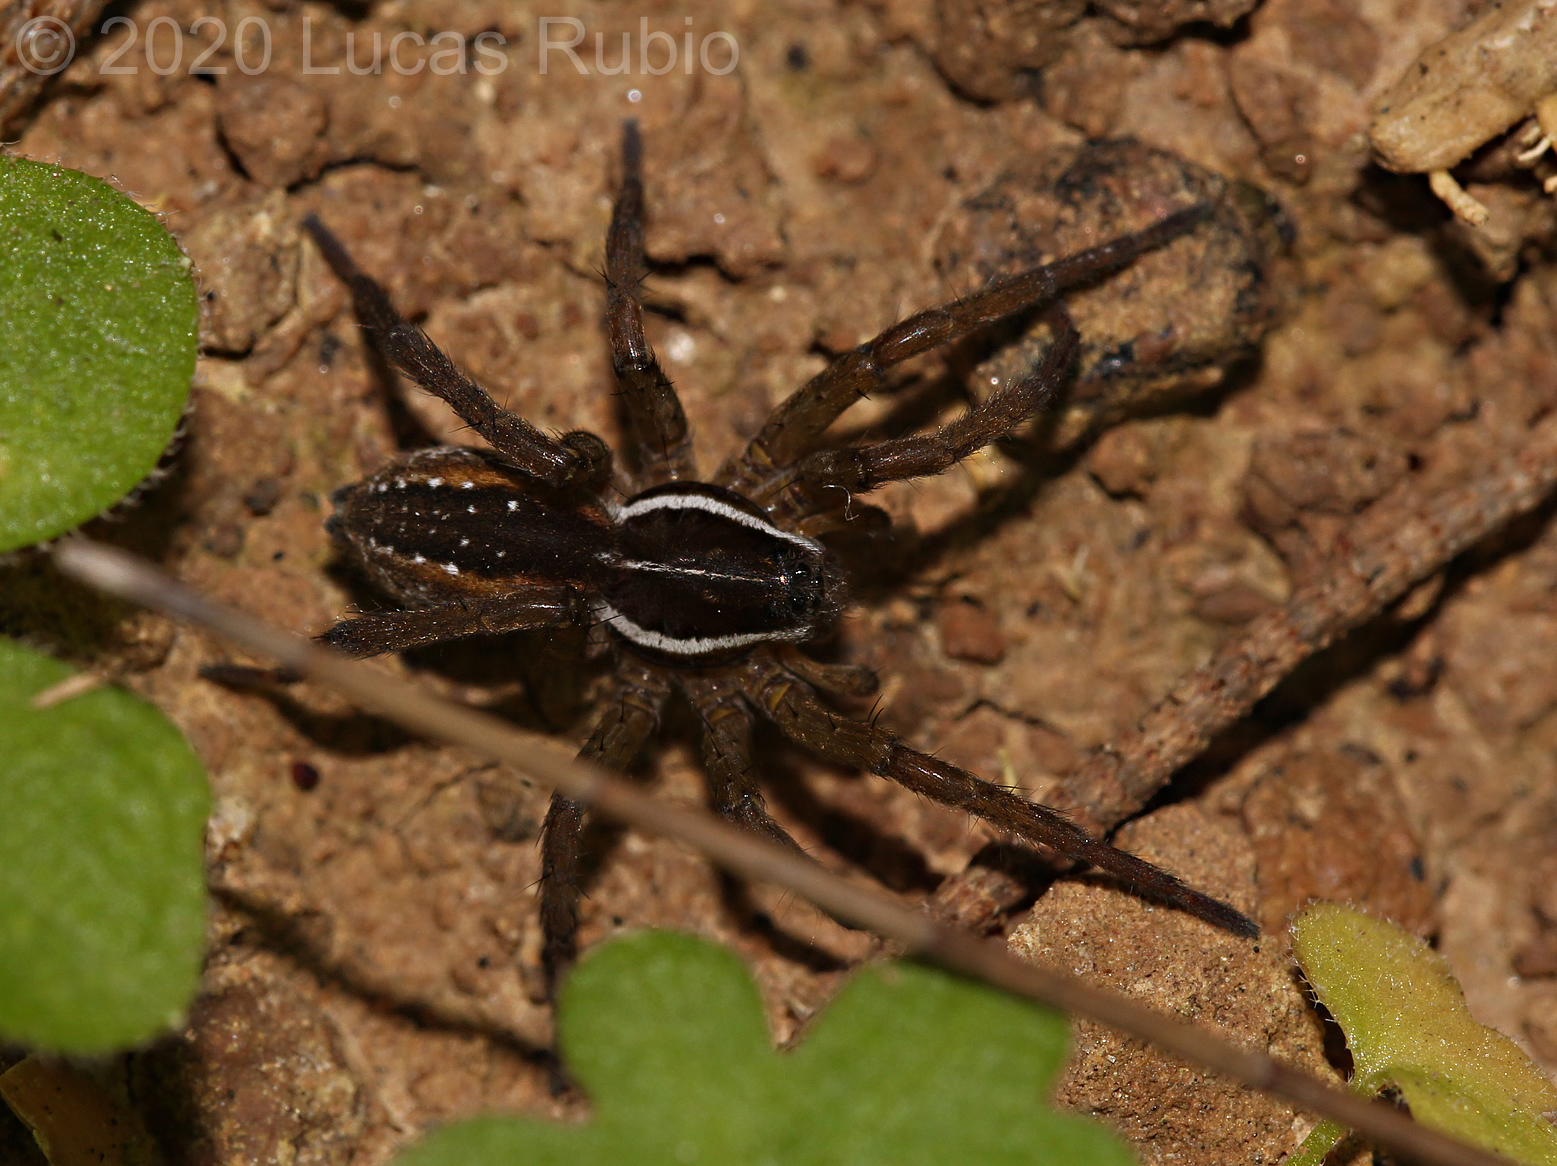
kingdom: Animalia
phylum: Arthropoda
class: Arachnida
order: Araneae
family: Lycosidae
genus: Diapontia
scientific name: Diapontia uruguayensis
